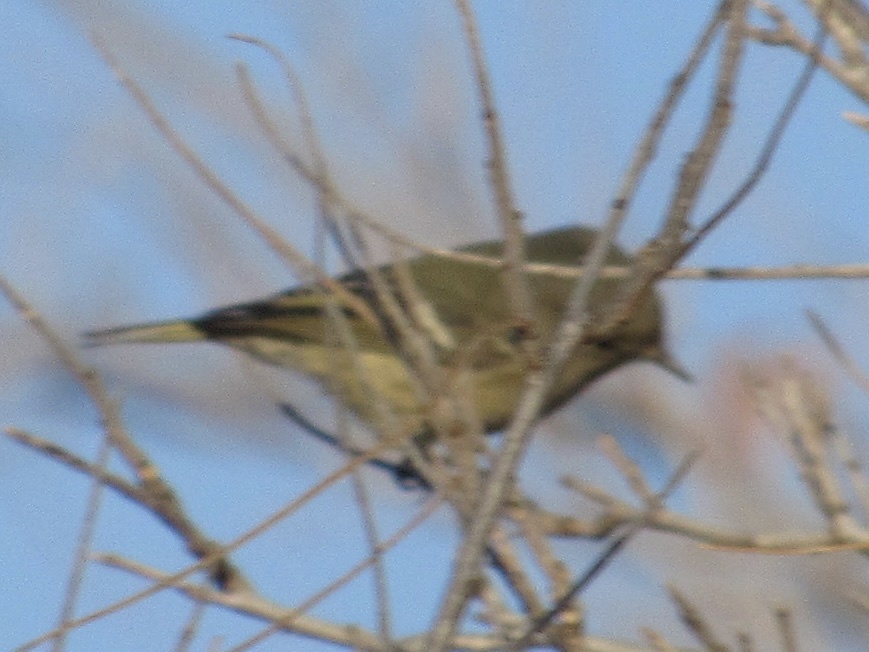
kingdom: Animalia
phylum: Chordata
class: Aves
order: Passeriformes
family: Regulidae
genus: Regulus
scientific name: Regulus calendula
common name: Ruby-crowned kinglet
